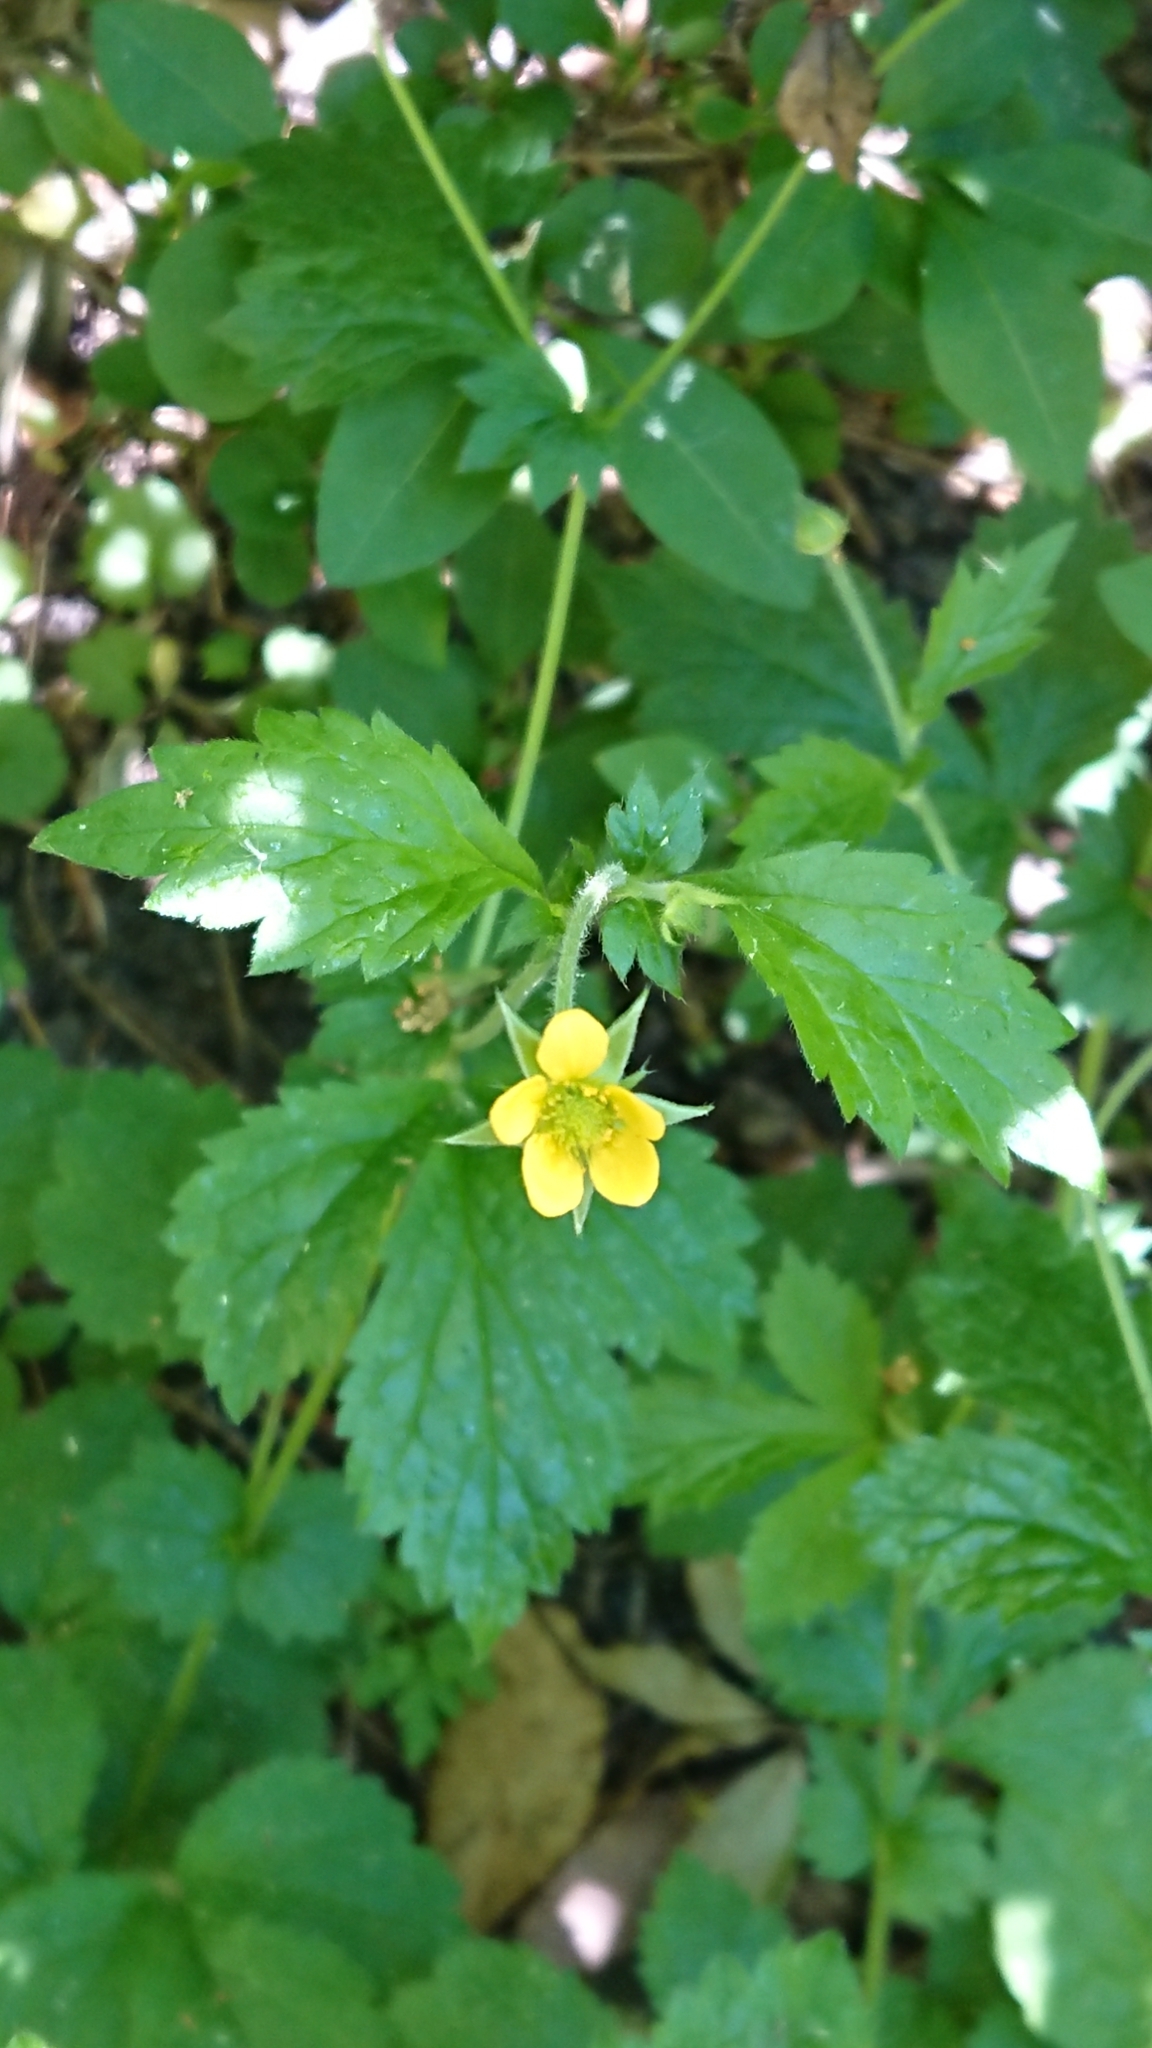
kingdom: Plantae
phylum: Tracheophyta
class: Magnoliopsida
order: Rosales
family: Rosaceae
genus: Geum
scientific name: Geum urbanum
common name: Wood avens
